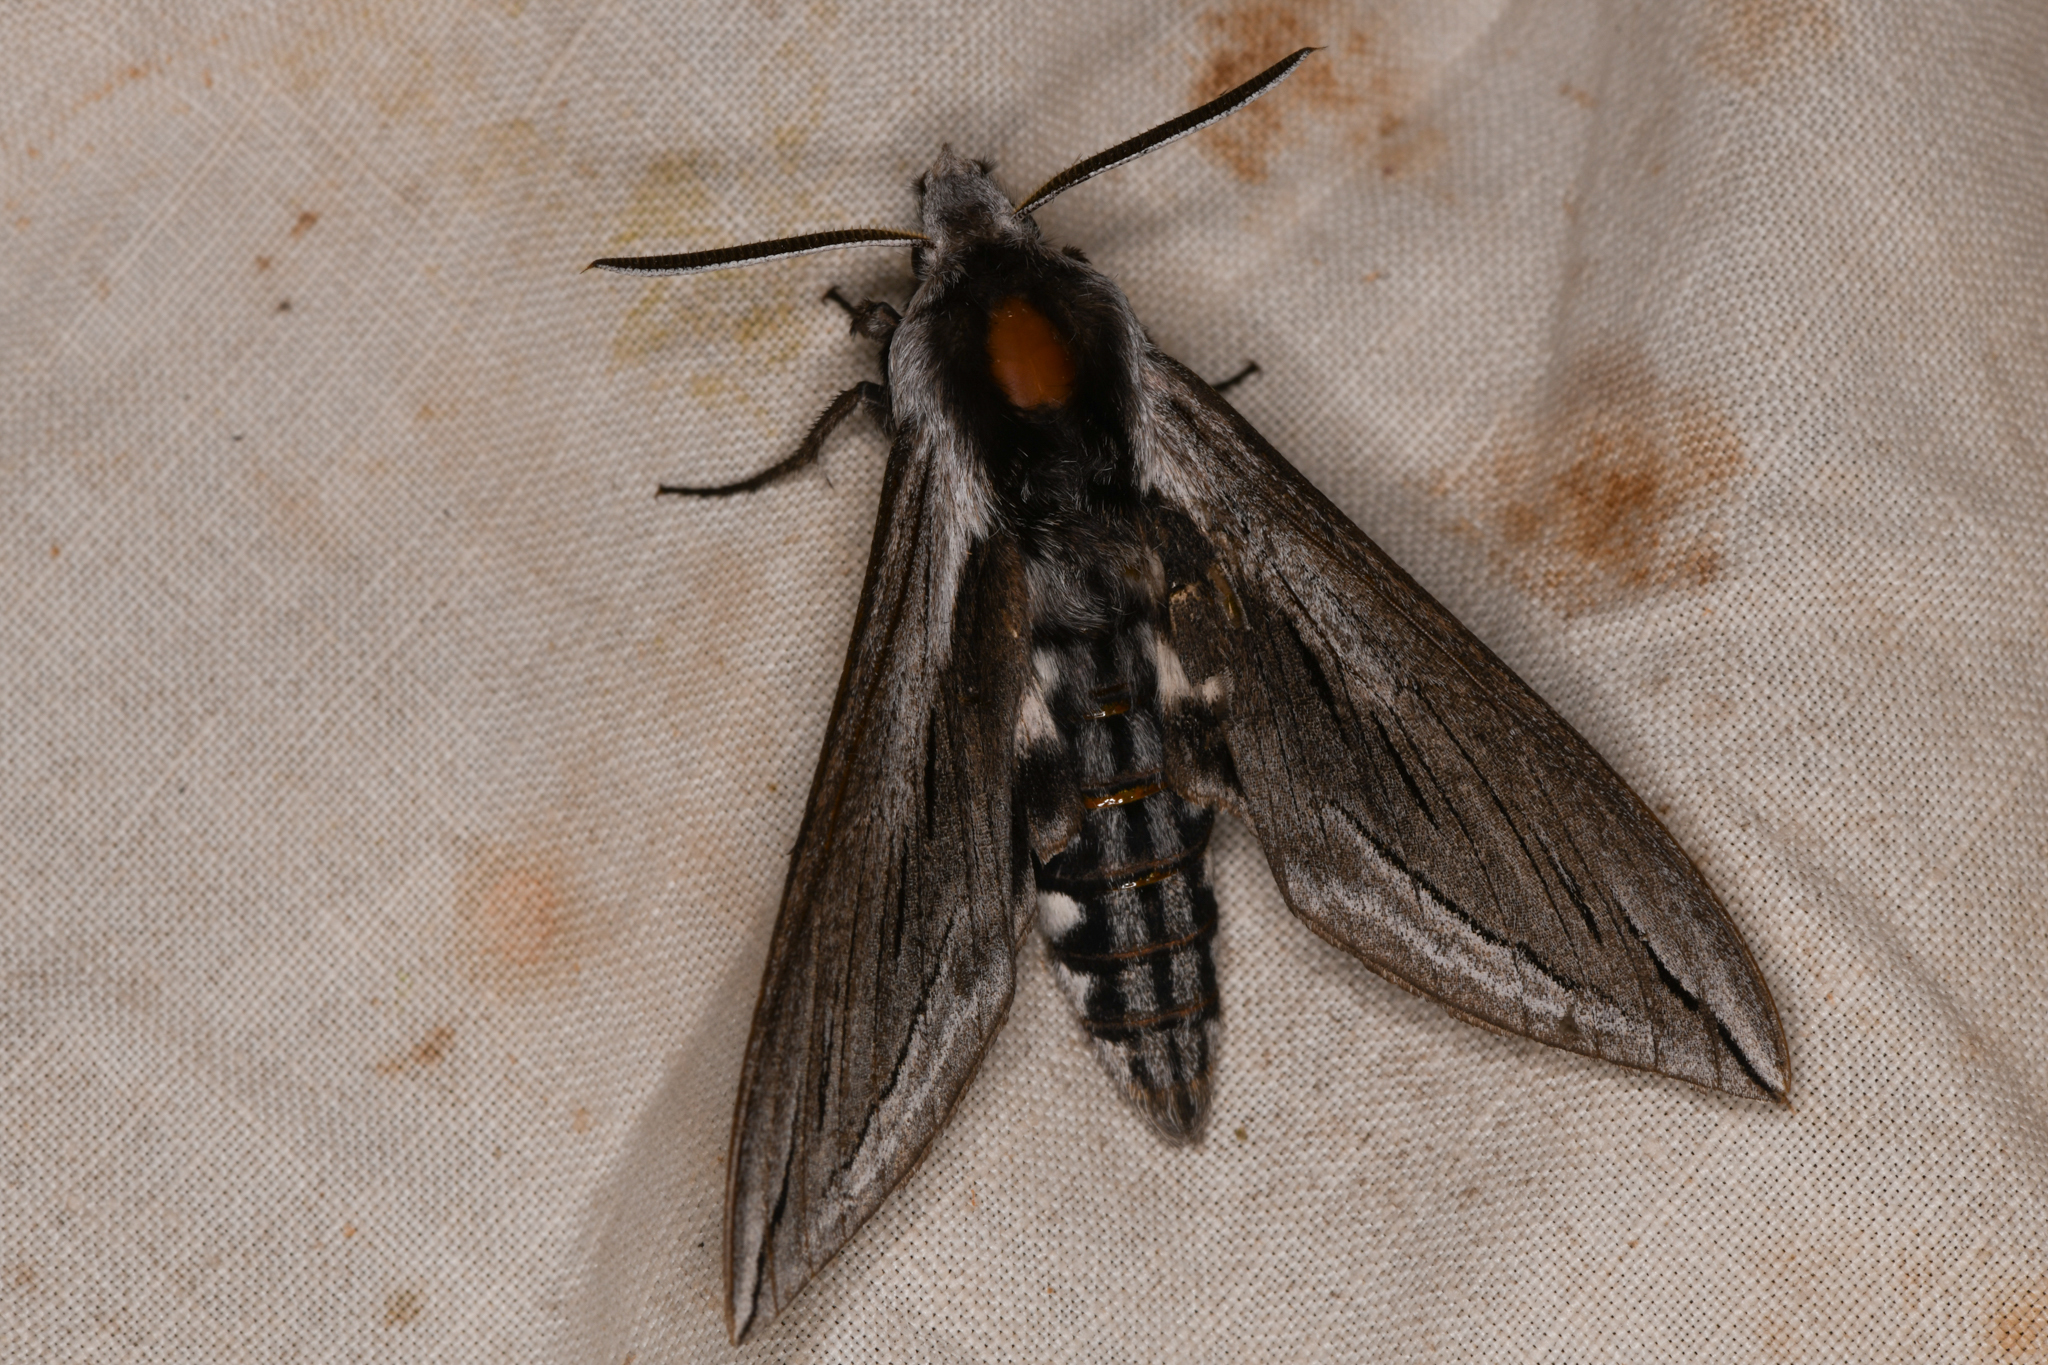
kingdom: Animalia
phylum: Arthropoda
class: Insecta
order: Lepidoptera
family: Sphingidae
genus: Sphinx
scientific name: Sphinx vashti
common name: Snowberry sphinx
